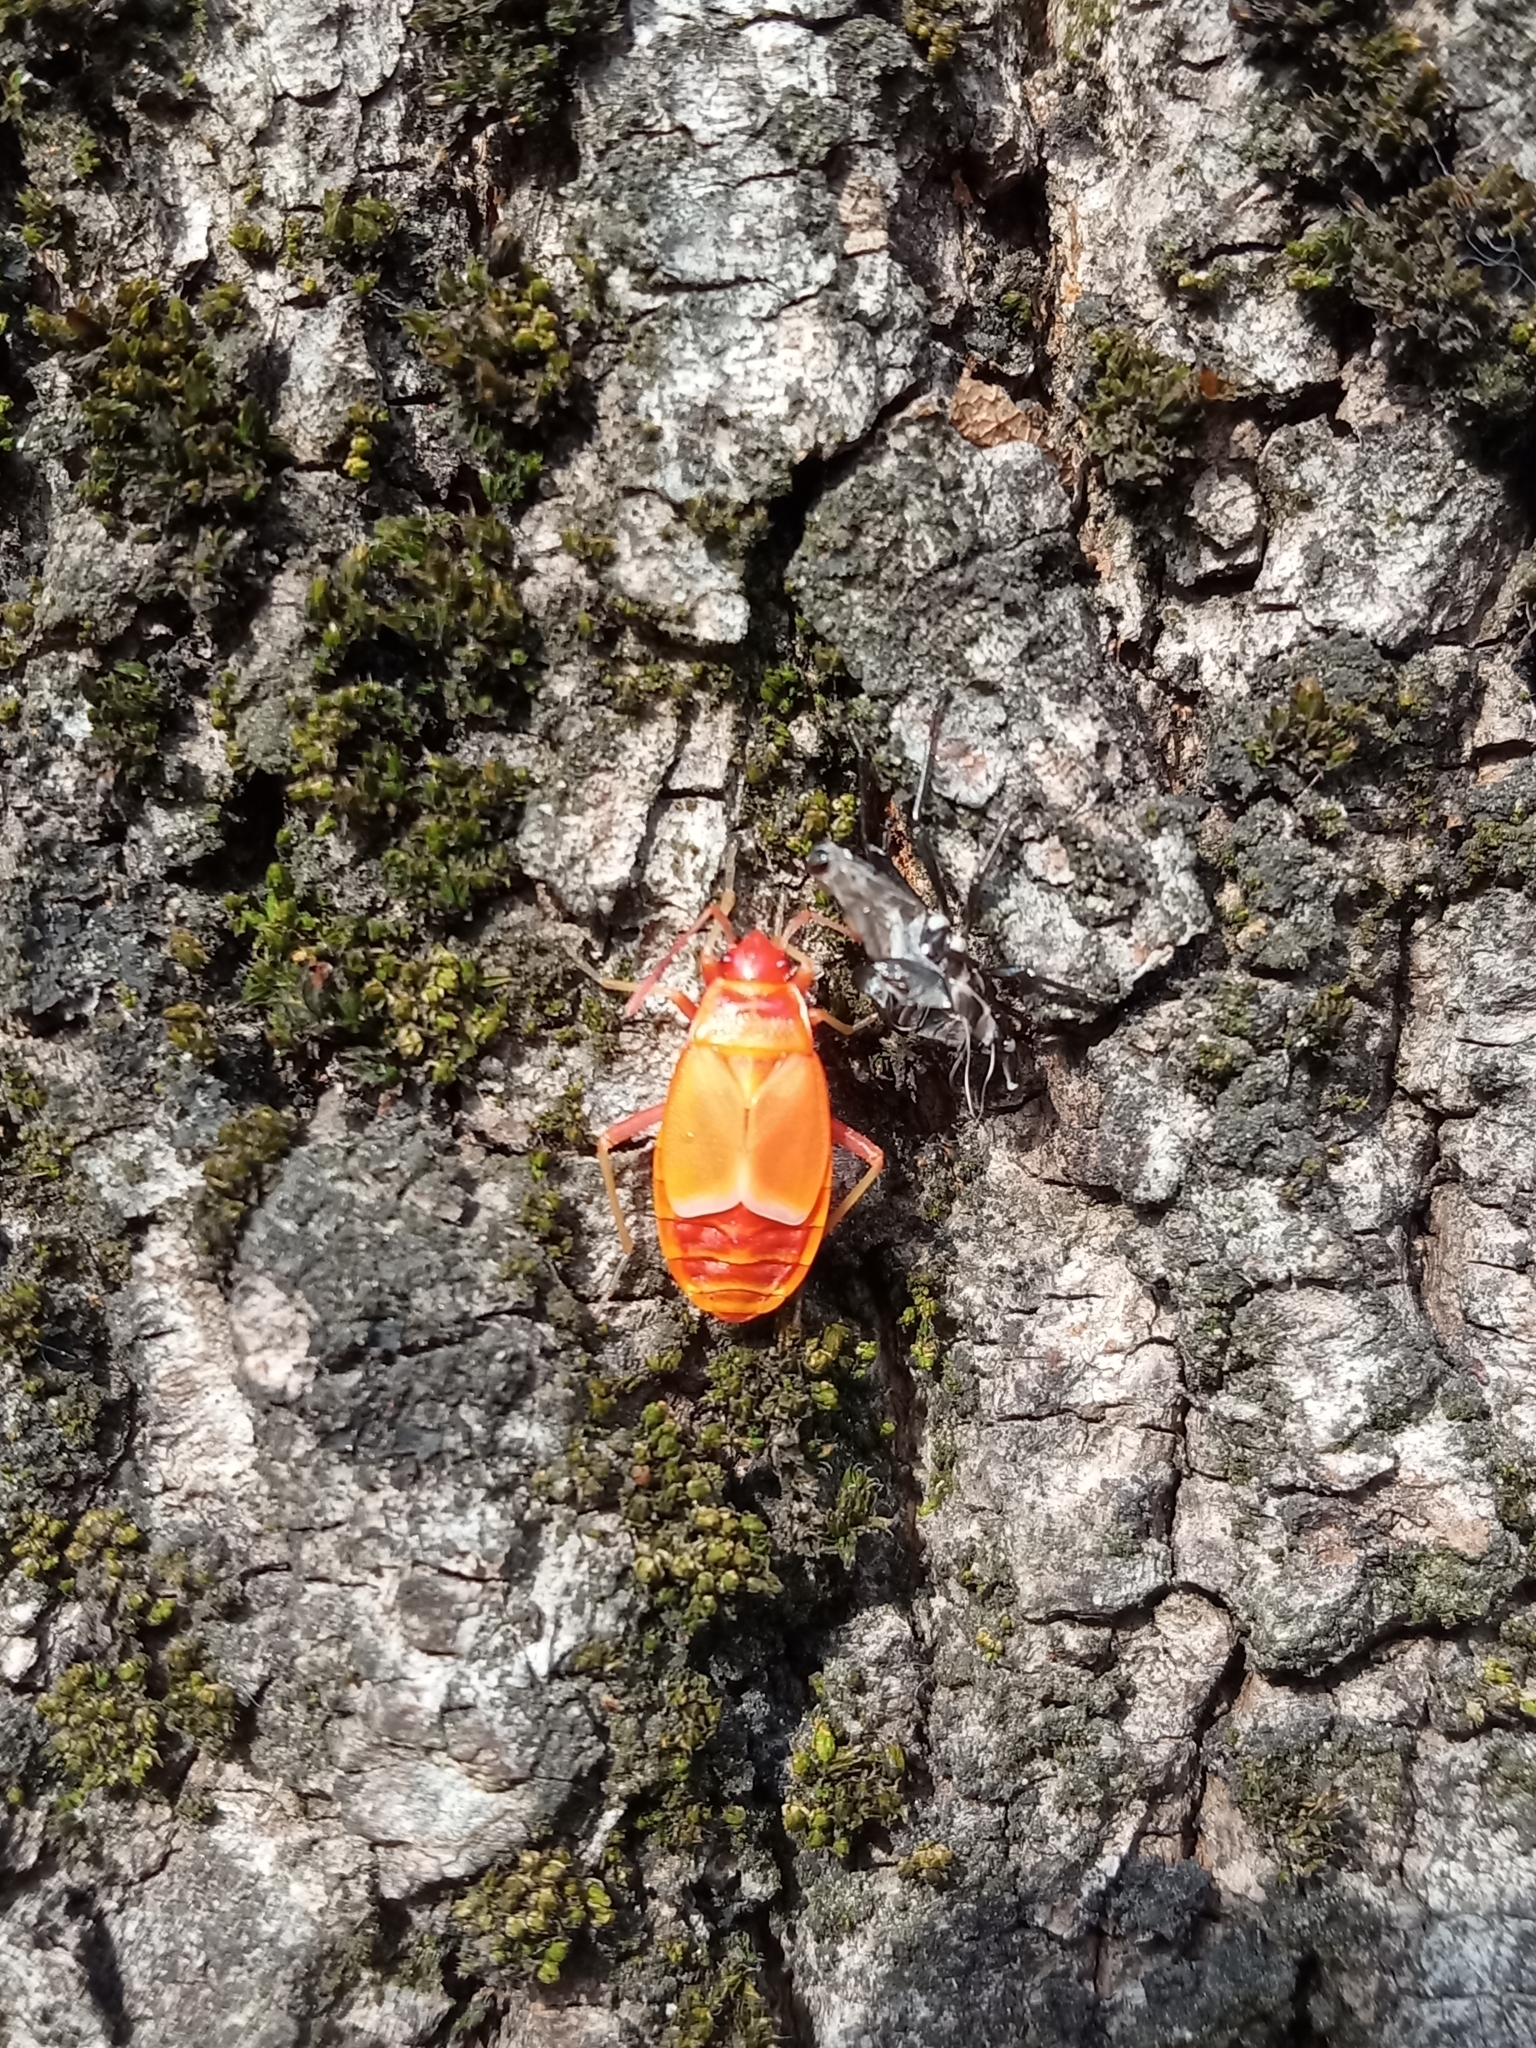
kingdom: Animalia
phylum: Arthropoda
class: Insecta
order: Hemiptera
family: Pyrrhocoridae
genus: Pyrrhocoris
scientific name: Pyrrhocoris apterus
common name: Firebug
